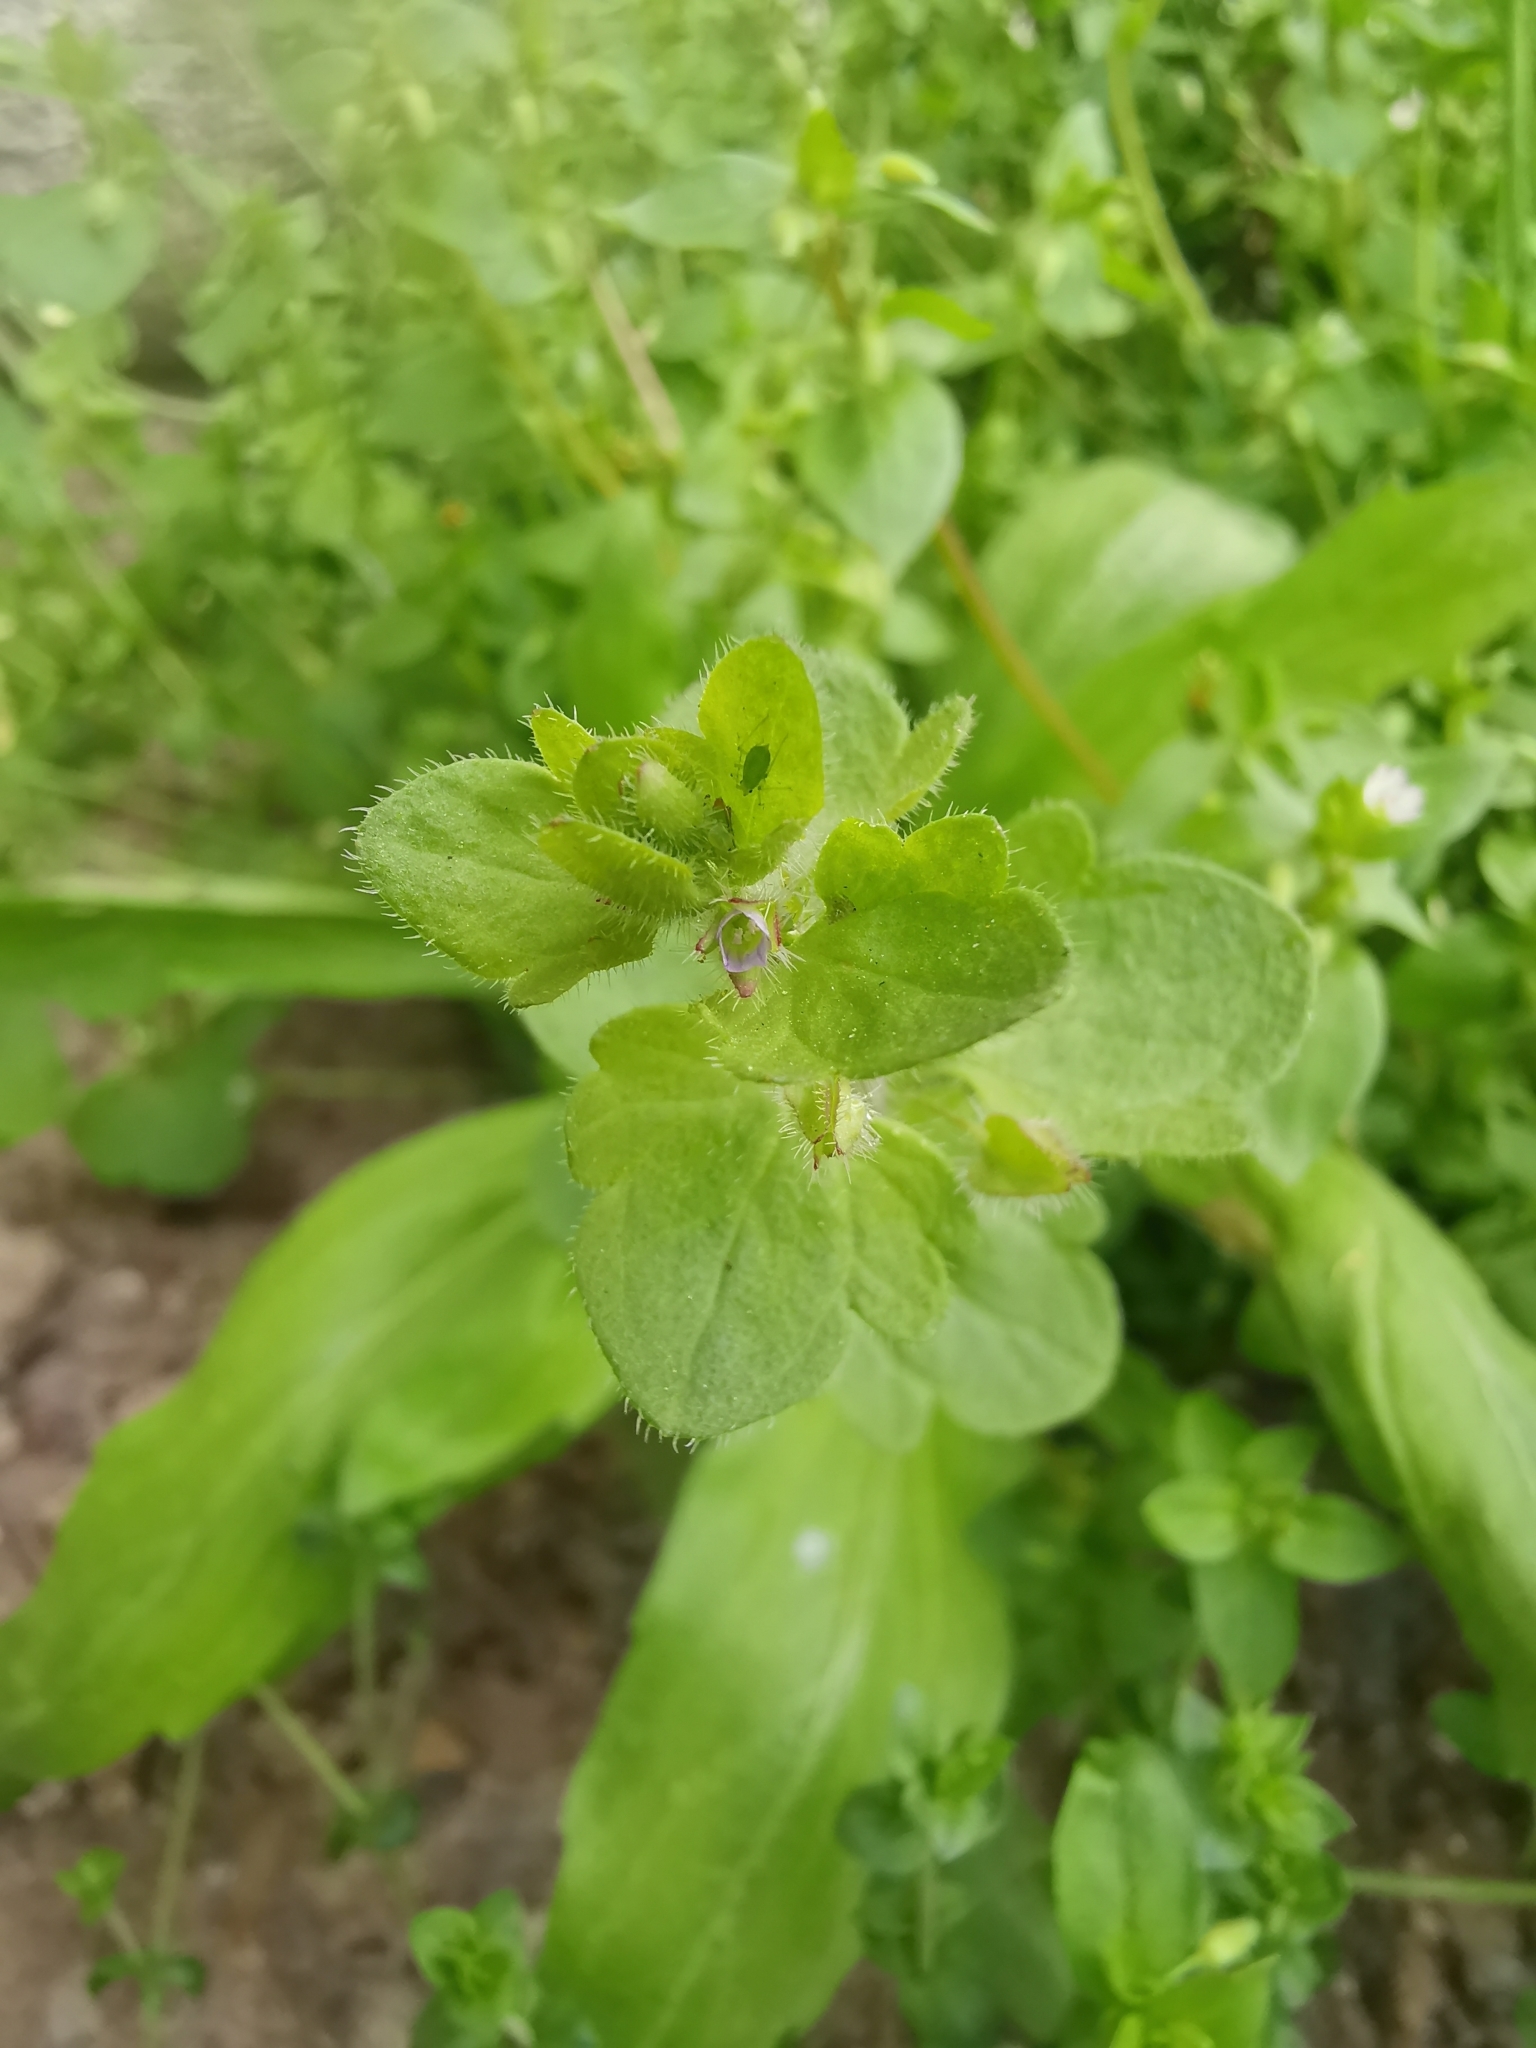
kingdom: Plantae
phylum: Tracheophyta
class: Magnoliopsida
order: Lamiales
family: Plantaginaceae
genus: Veronica
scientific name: Veronica sublobata
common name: False ivy-leaved speedwell
